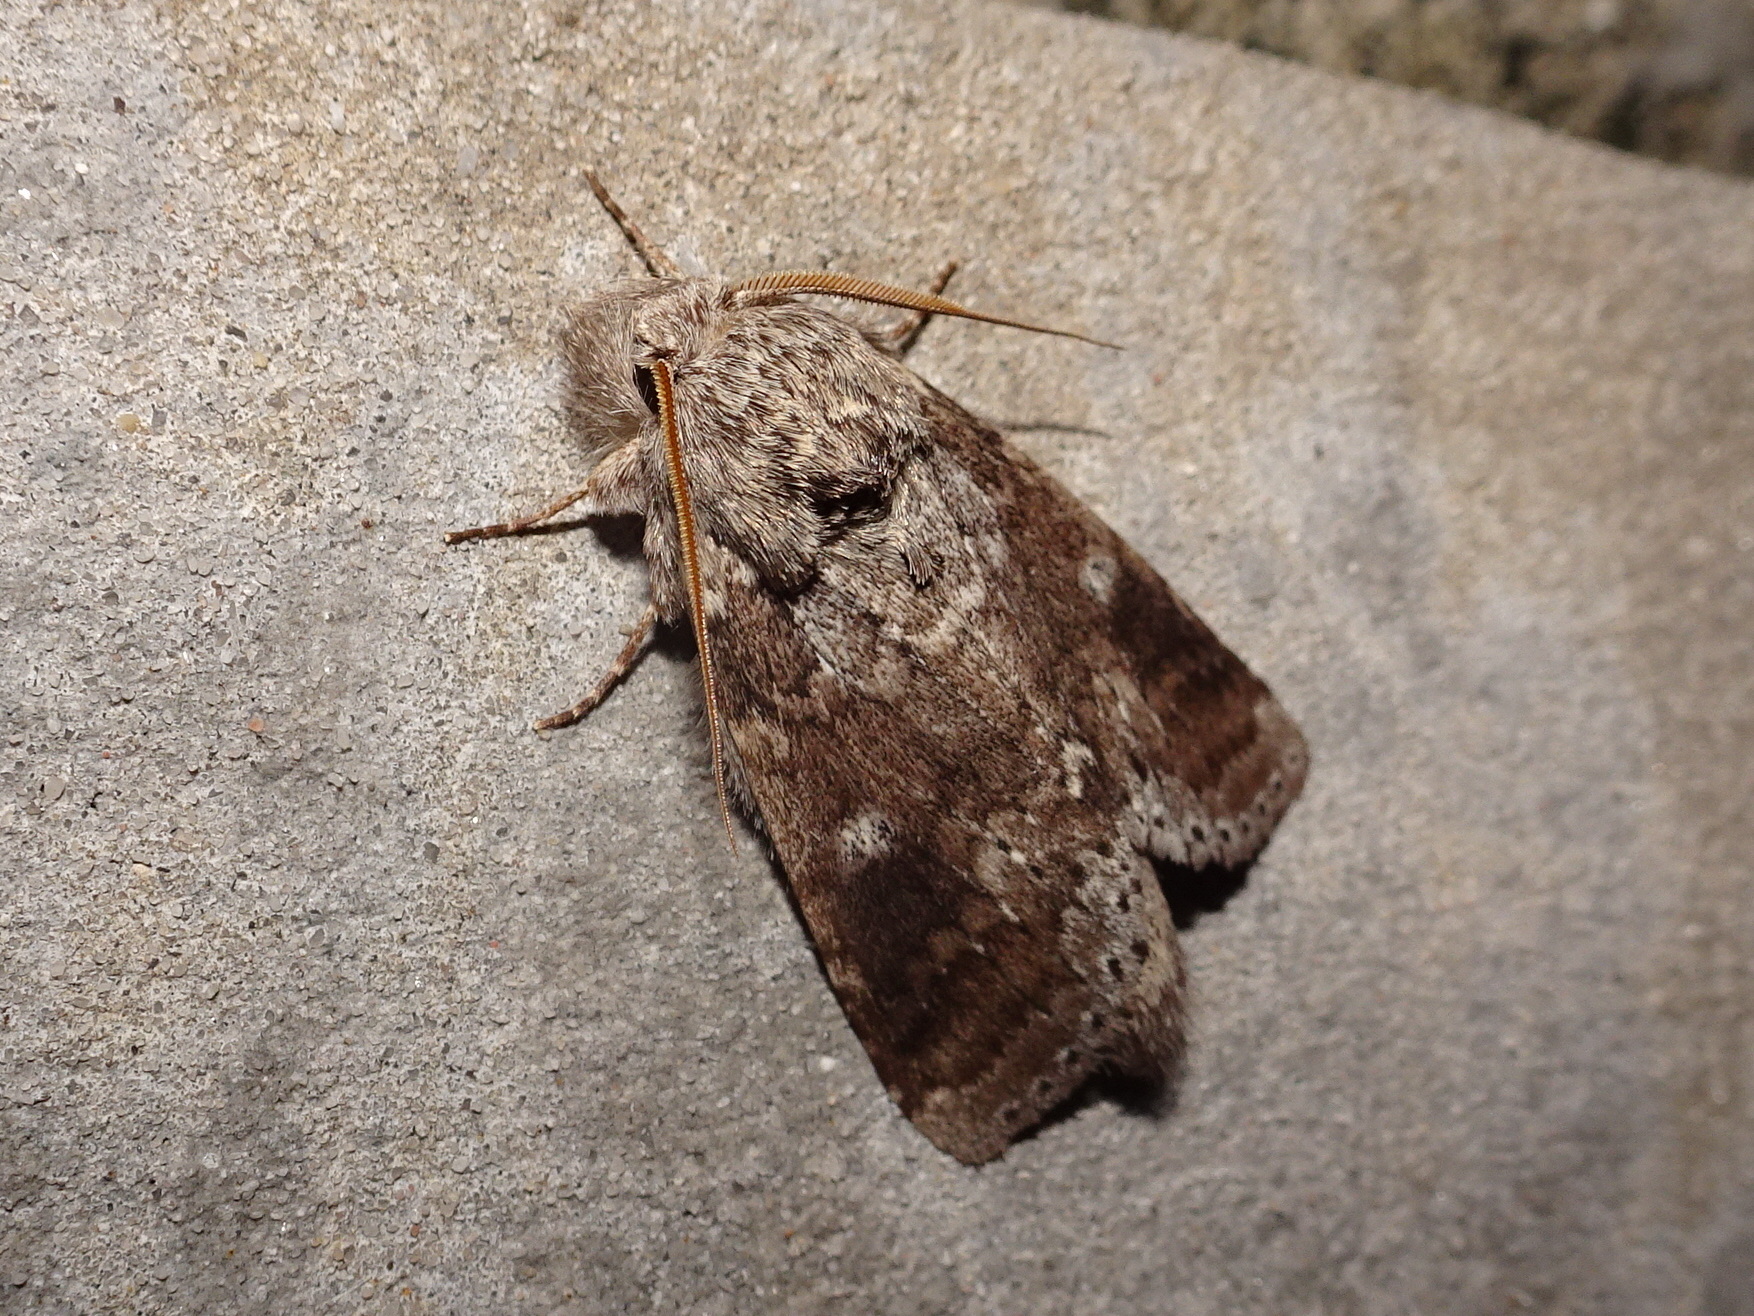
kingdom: Animalia
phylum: Arthropoda
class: Insecta
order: Lepidoptera
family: Notodontidae
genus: Lochmaeus
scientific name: Lochmaeus manteo
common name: Variable oakleaf caterpillar moth
